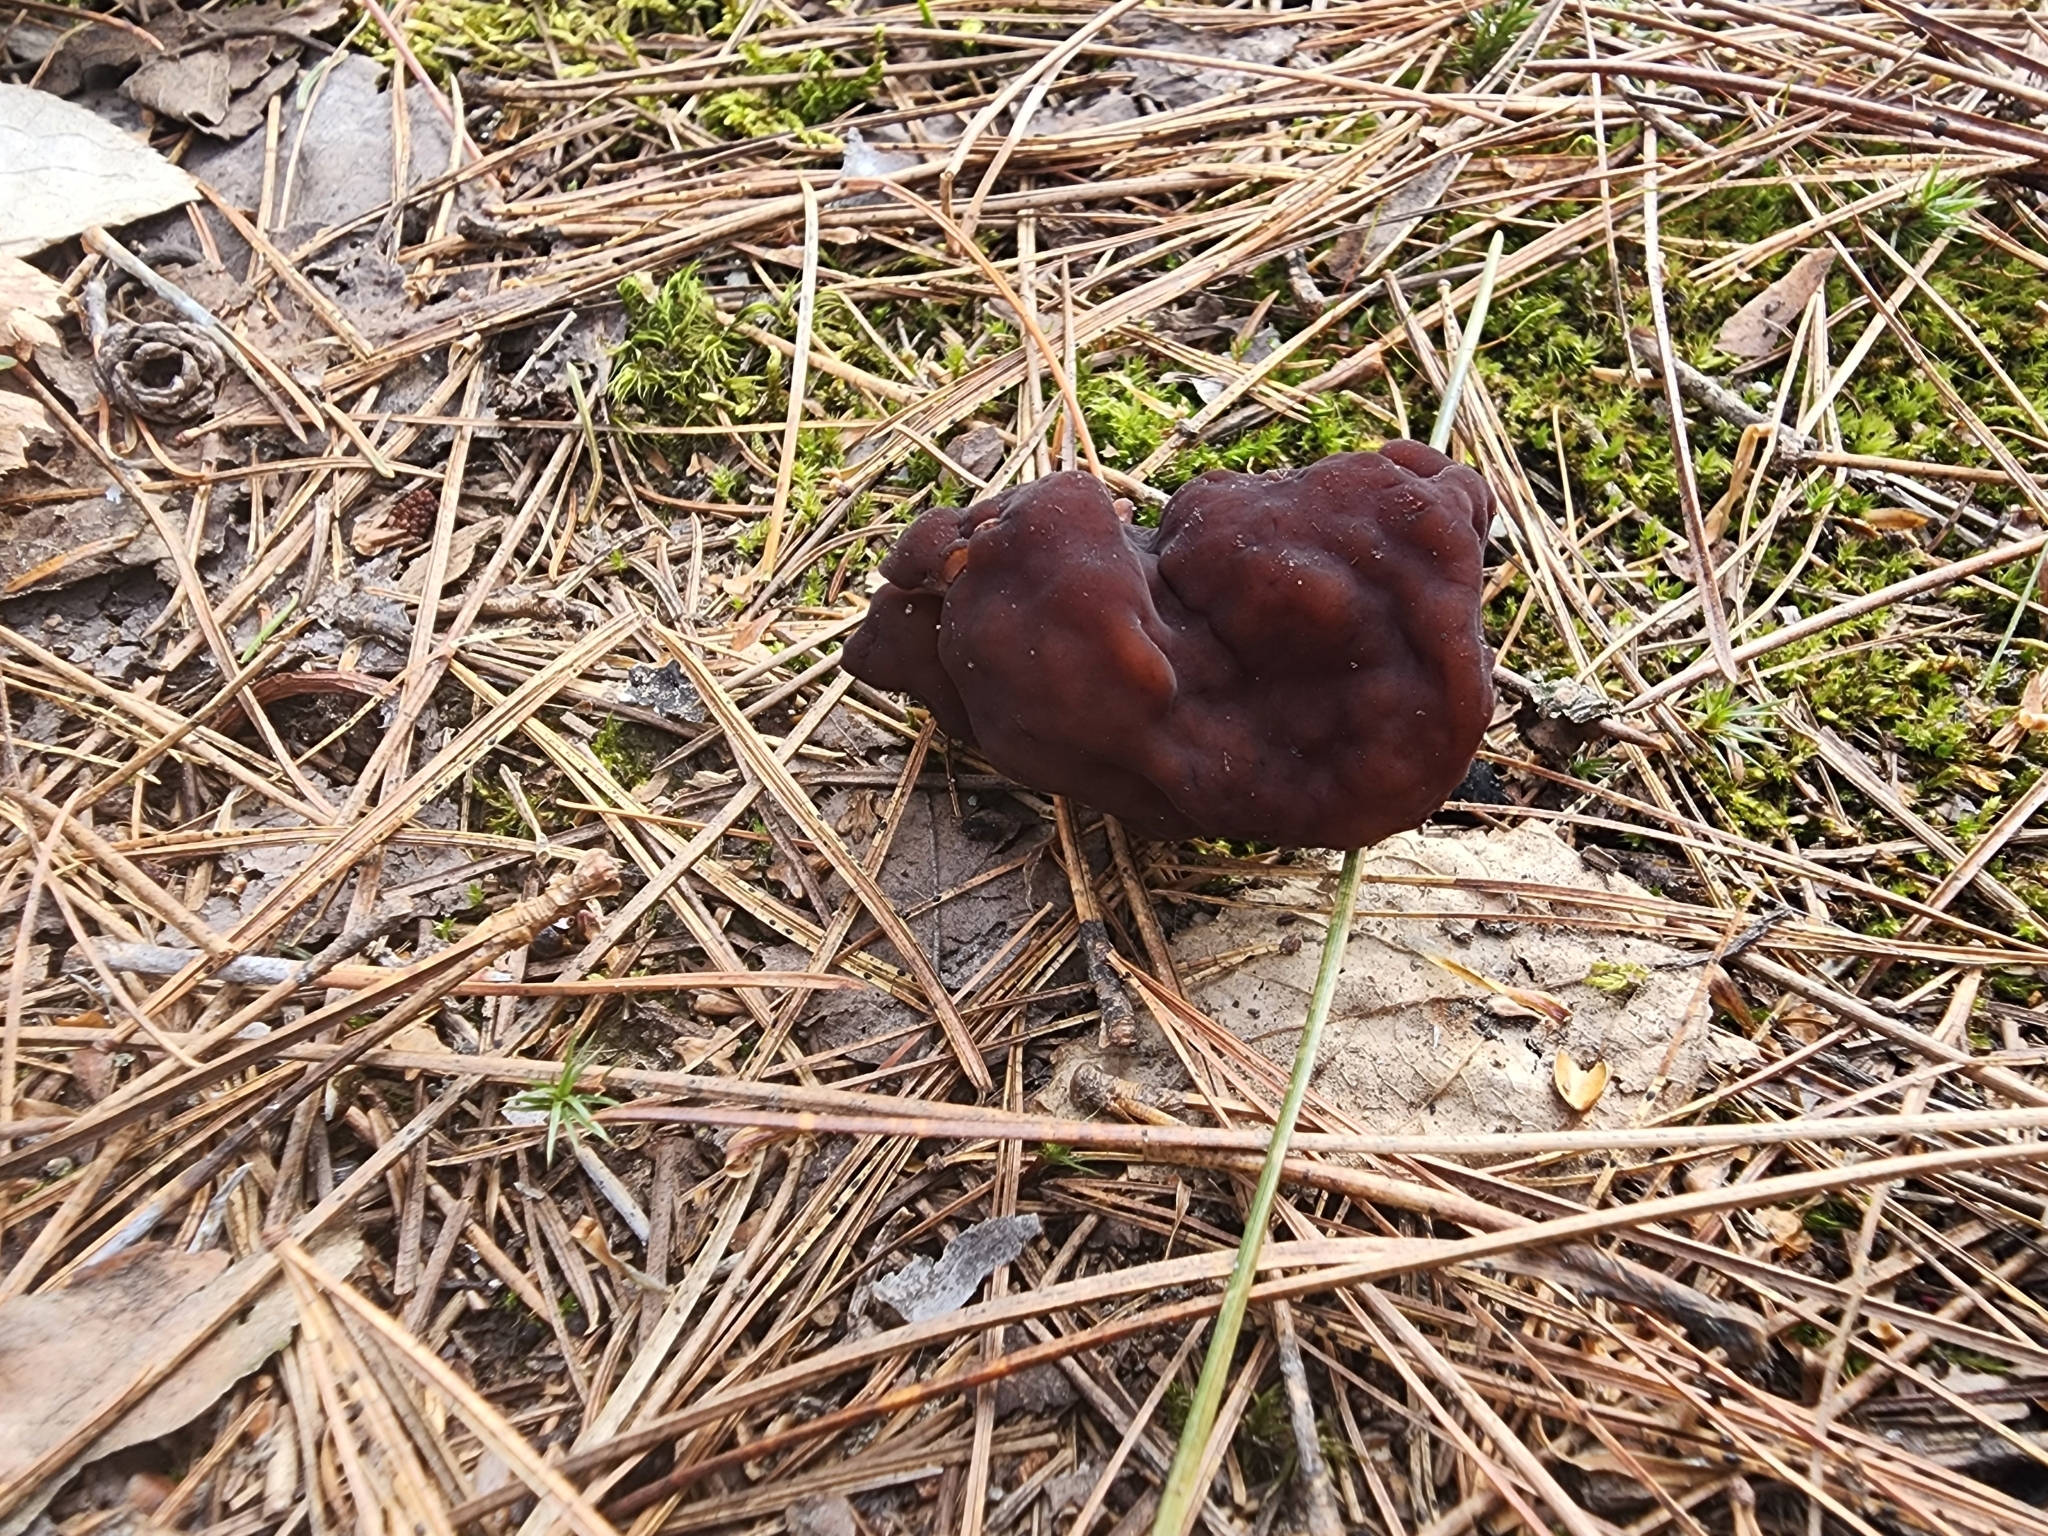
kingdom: Fungi
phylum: Ascomycota
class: Pezizomycetes
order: Pezizales
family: Discinaceae
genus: Gyromitra
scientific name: Gyromitra esculenta
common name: False morel
